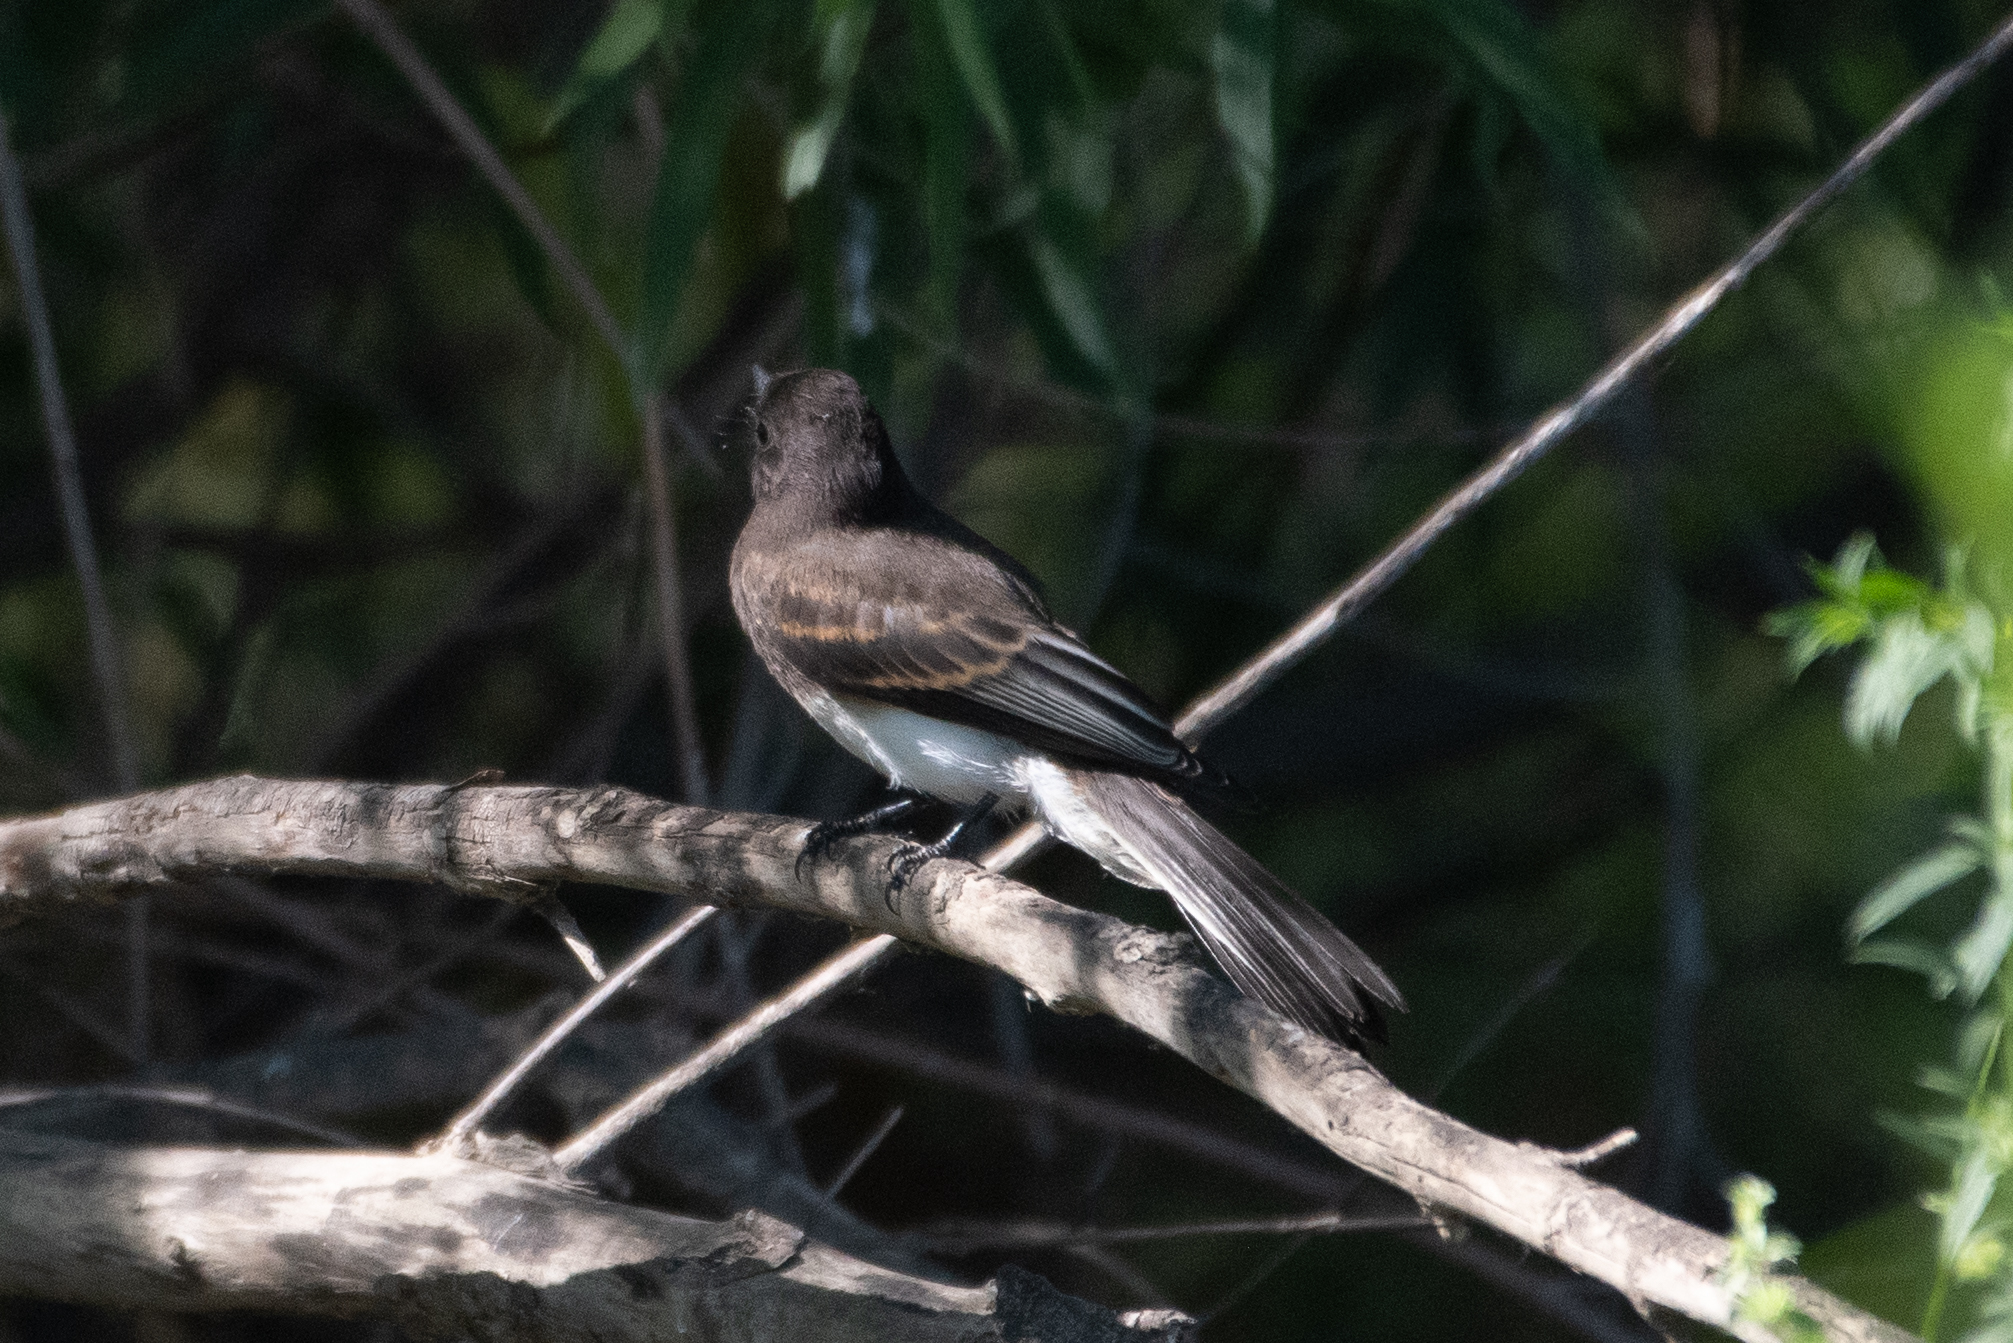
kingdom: Animalia
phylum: Chordata
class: Aves
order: Passeriformes
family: Tyrannidae
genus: Sayornis
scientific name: Sayornis nigricans
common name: Black phoebe
